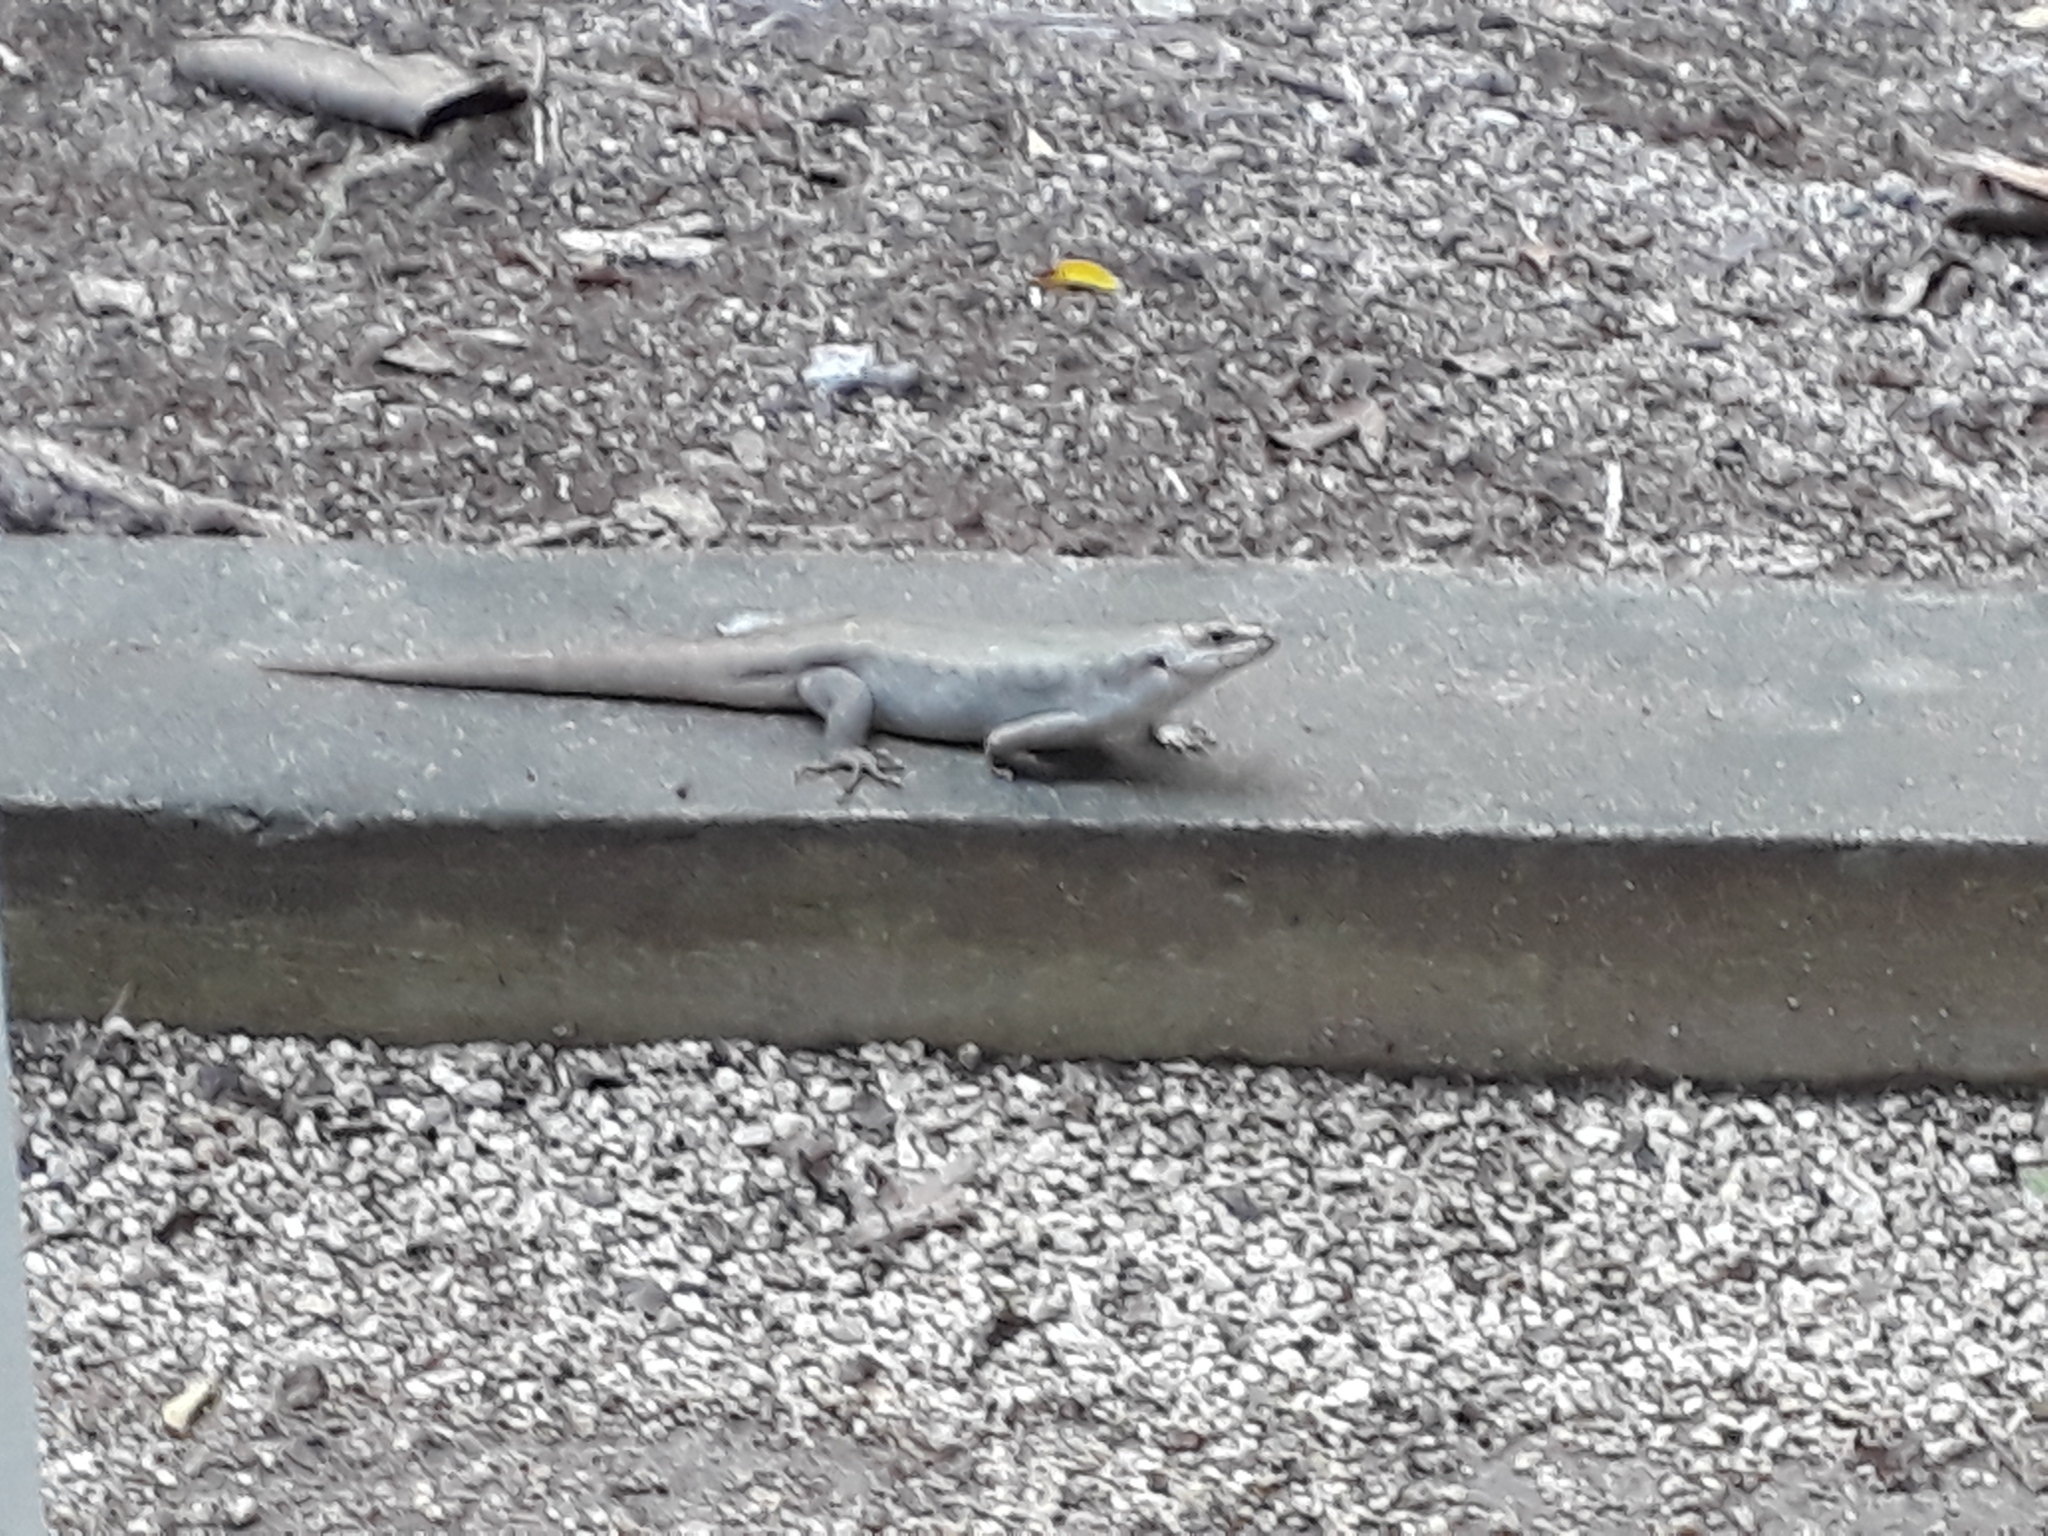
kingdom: Animalia
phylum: Chordata
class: Squamata
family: Scincidae
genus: Leiolopisma
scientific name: Leiolopisma telfairii
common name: Round island skink
